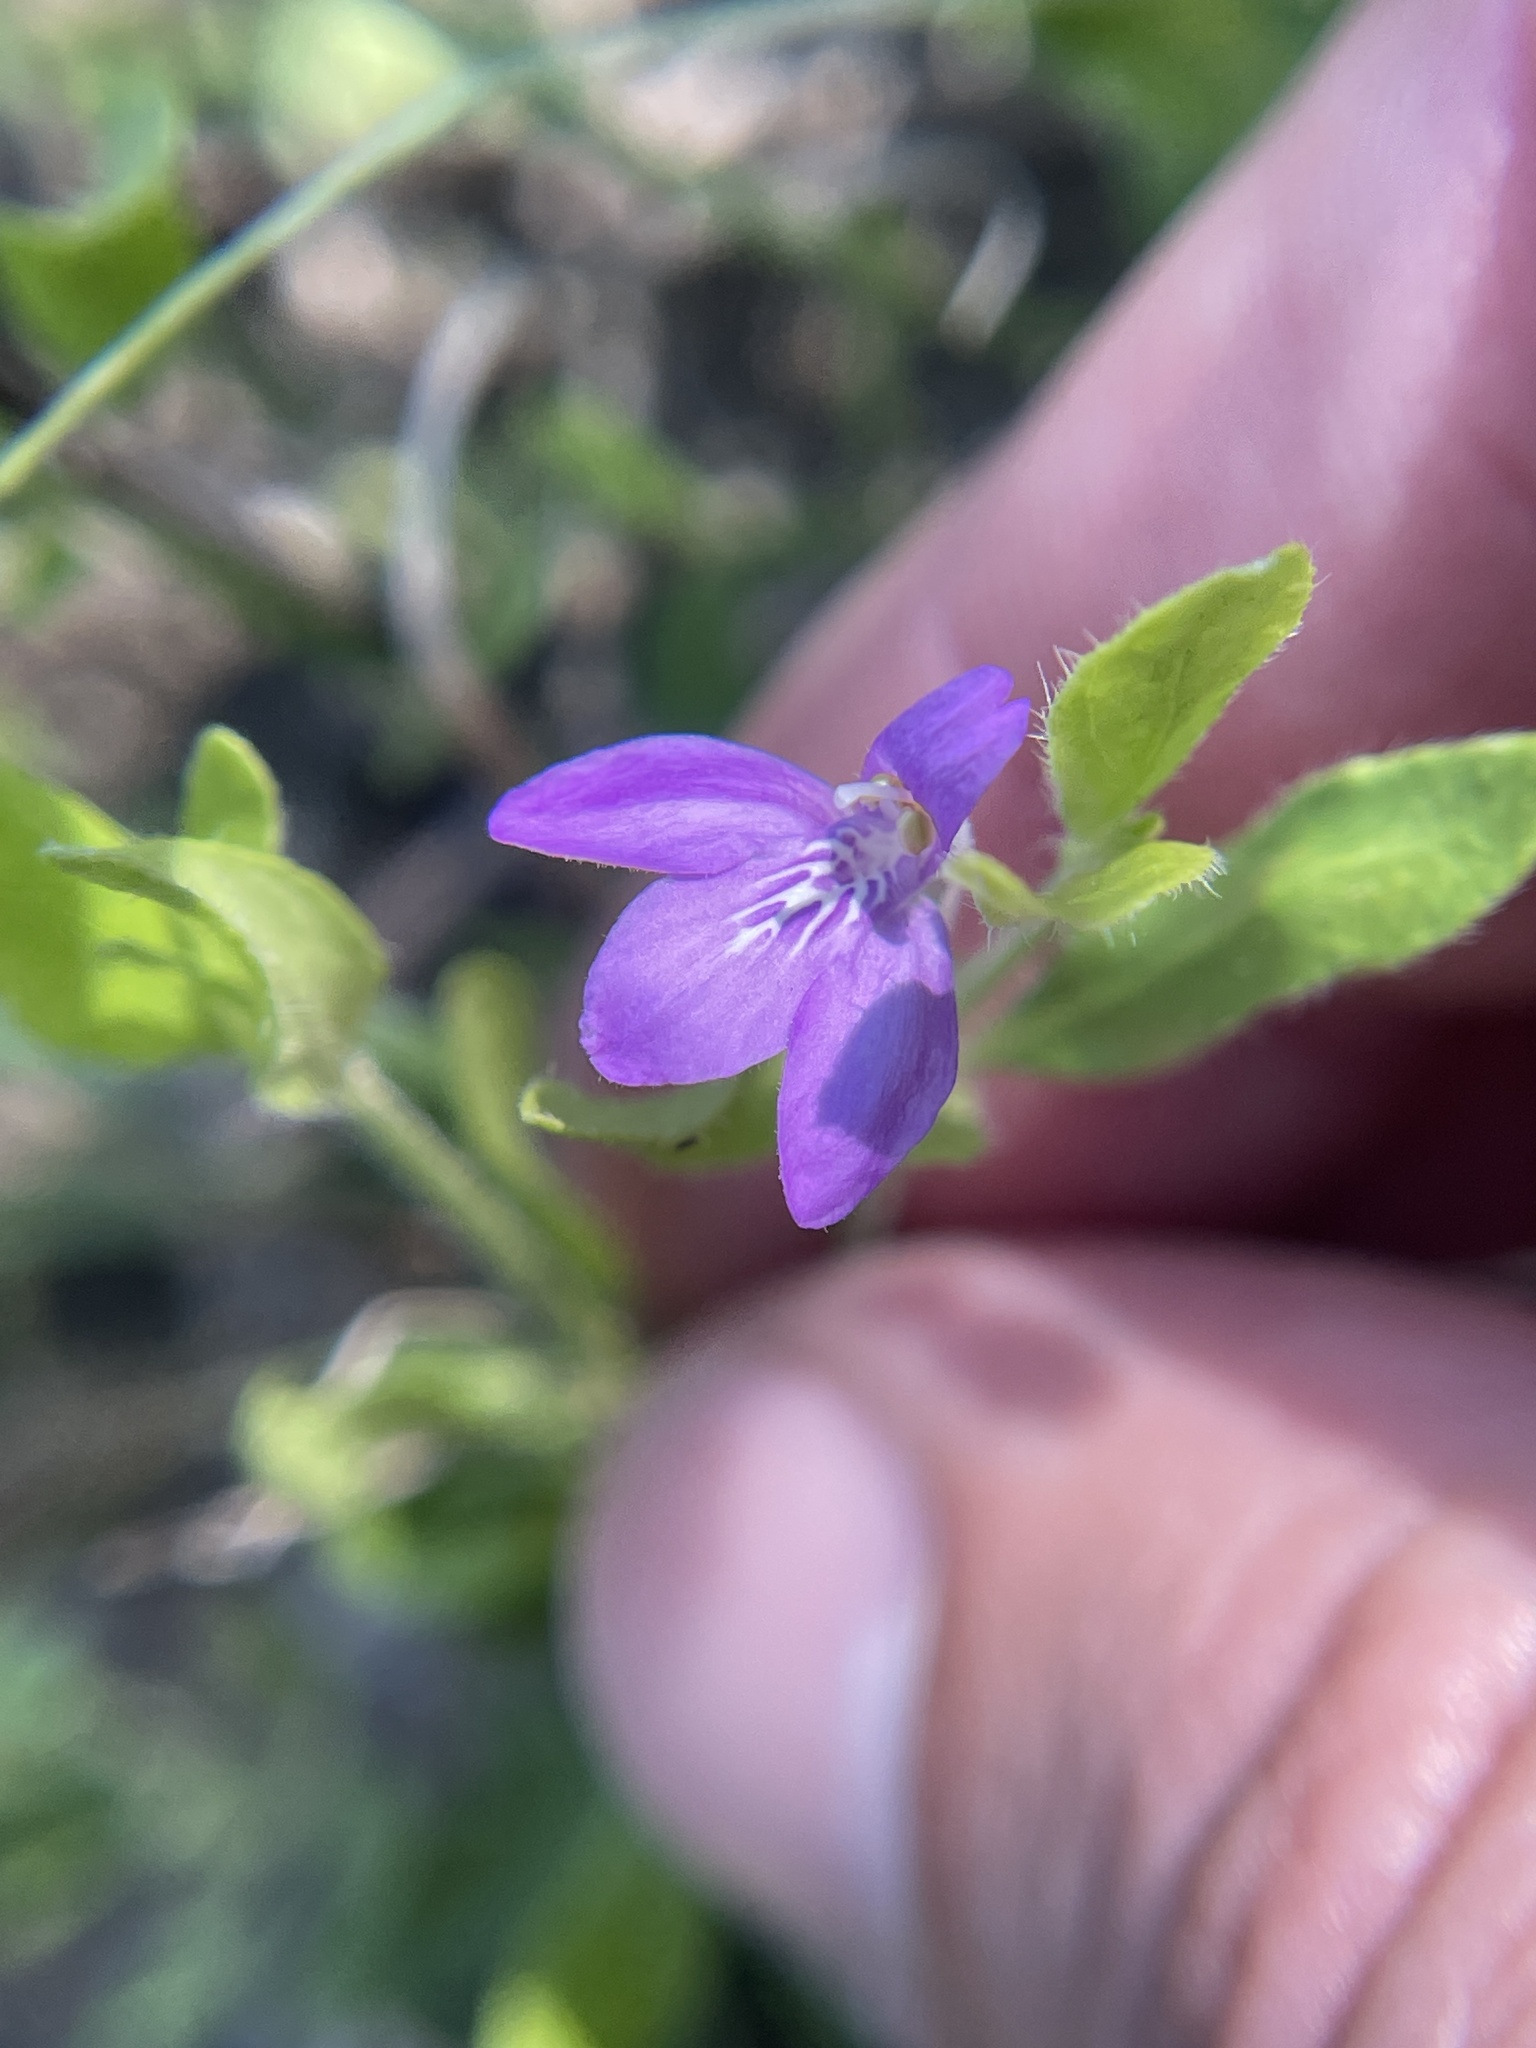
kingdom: Plantae
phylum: Tracheophyta
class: Magnoliopsida
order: Lamiales
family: Acanthaceae
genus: Justicia
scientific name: Justicia pilosella
